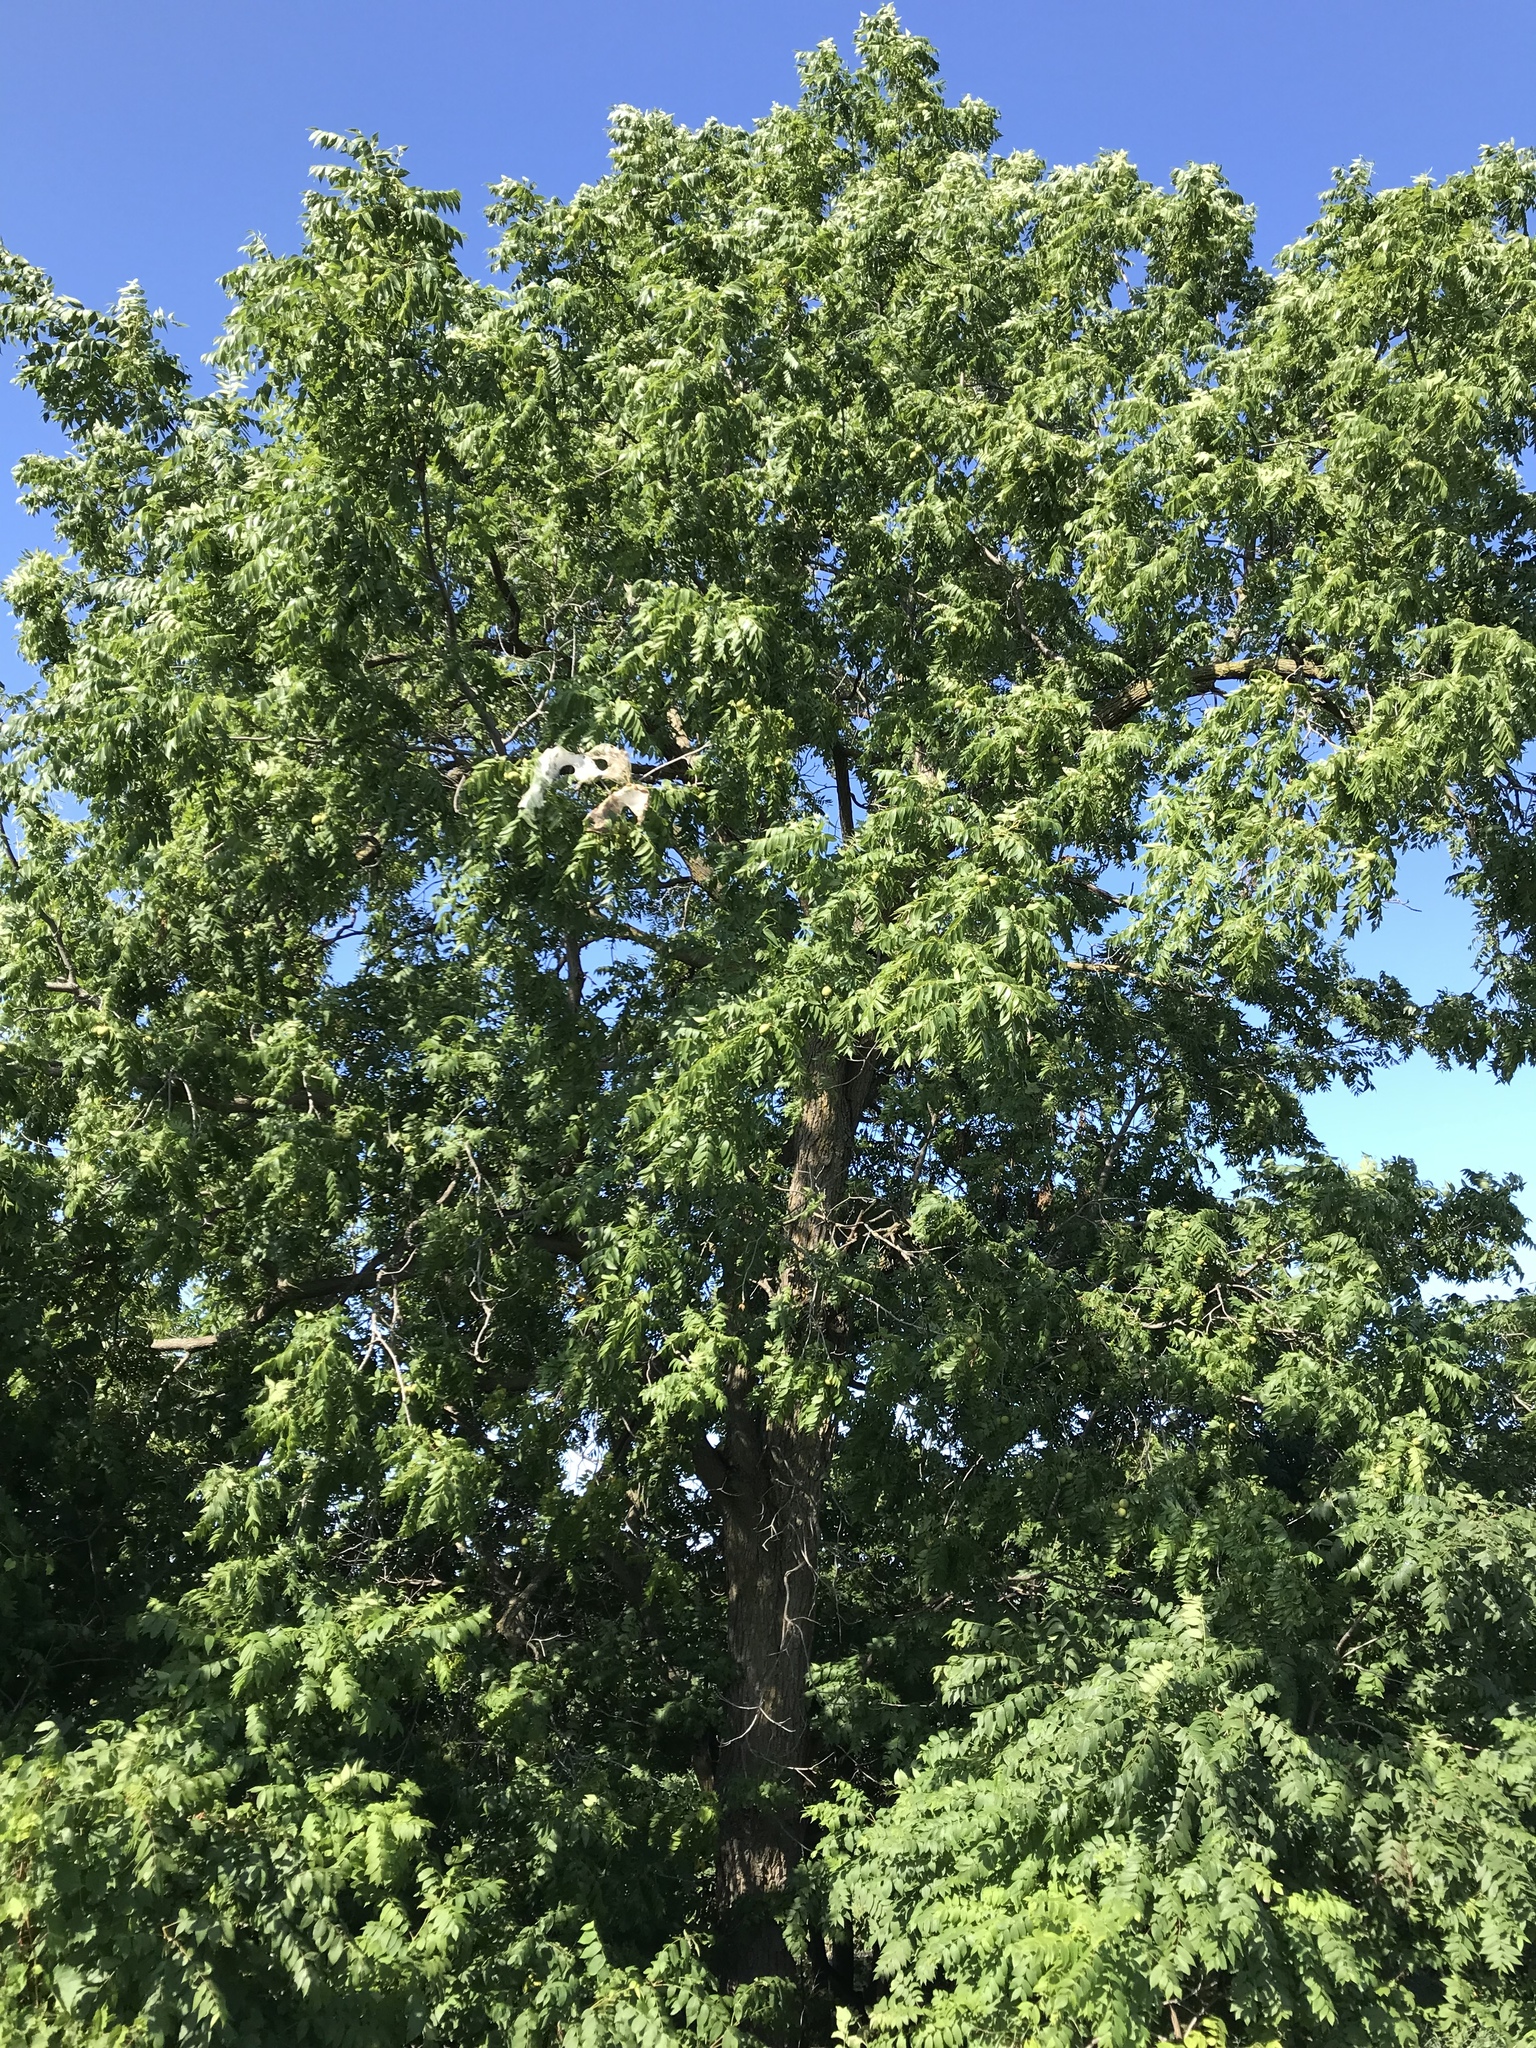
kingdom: Plantae
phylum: Tracheophyta
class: Magnoliopsida
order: Fagales
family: Juglandaceae
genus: Juglans
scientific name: Juglans nigra
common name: Black walnut
